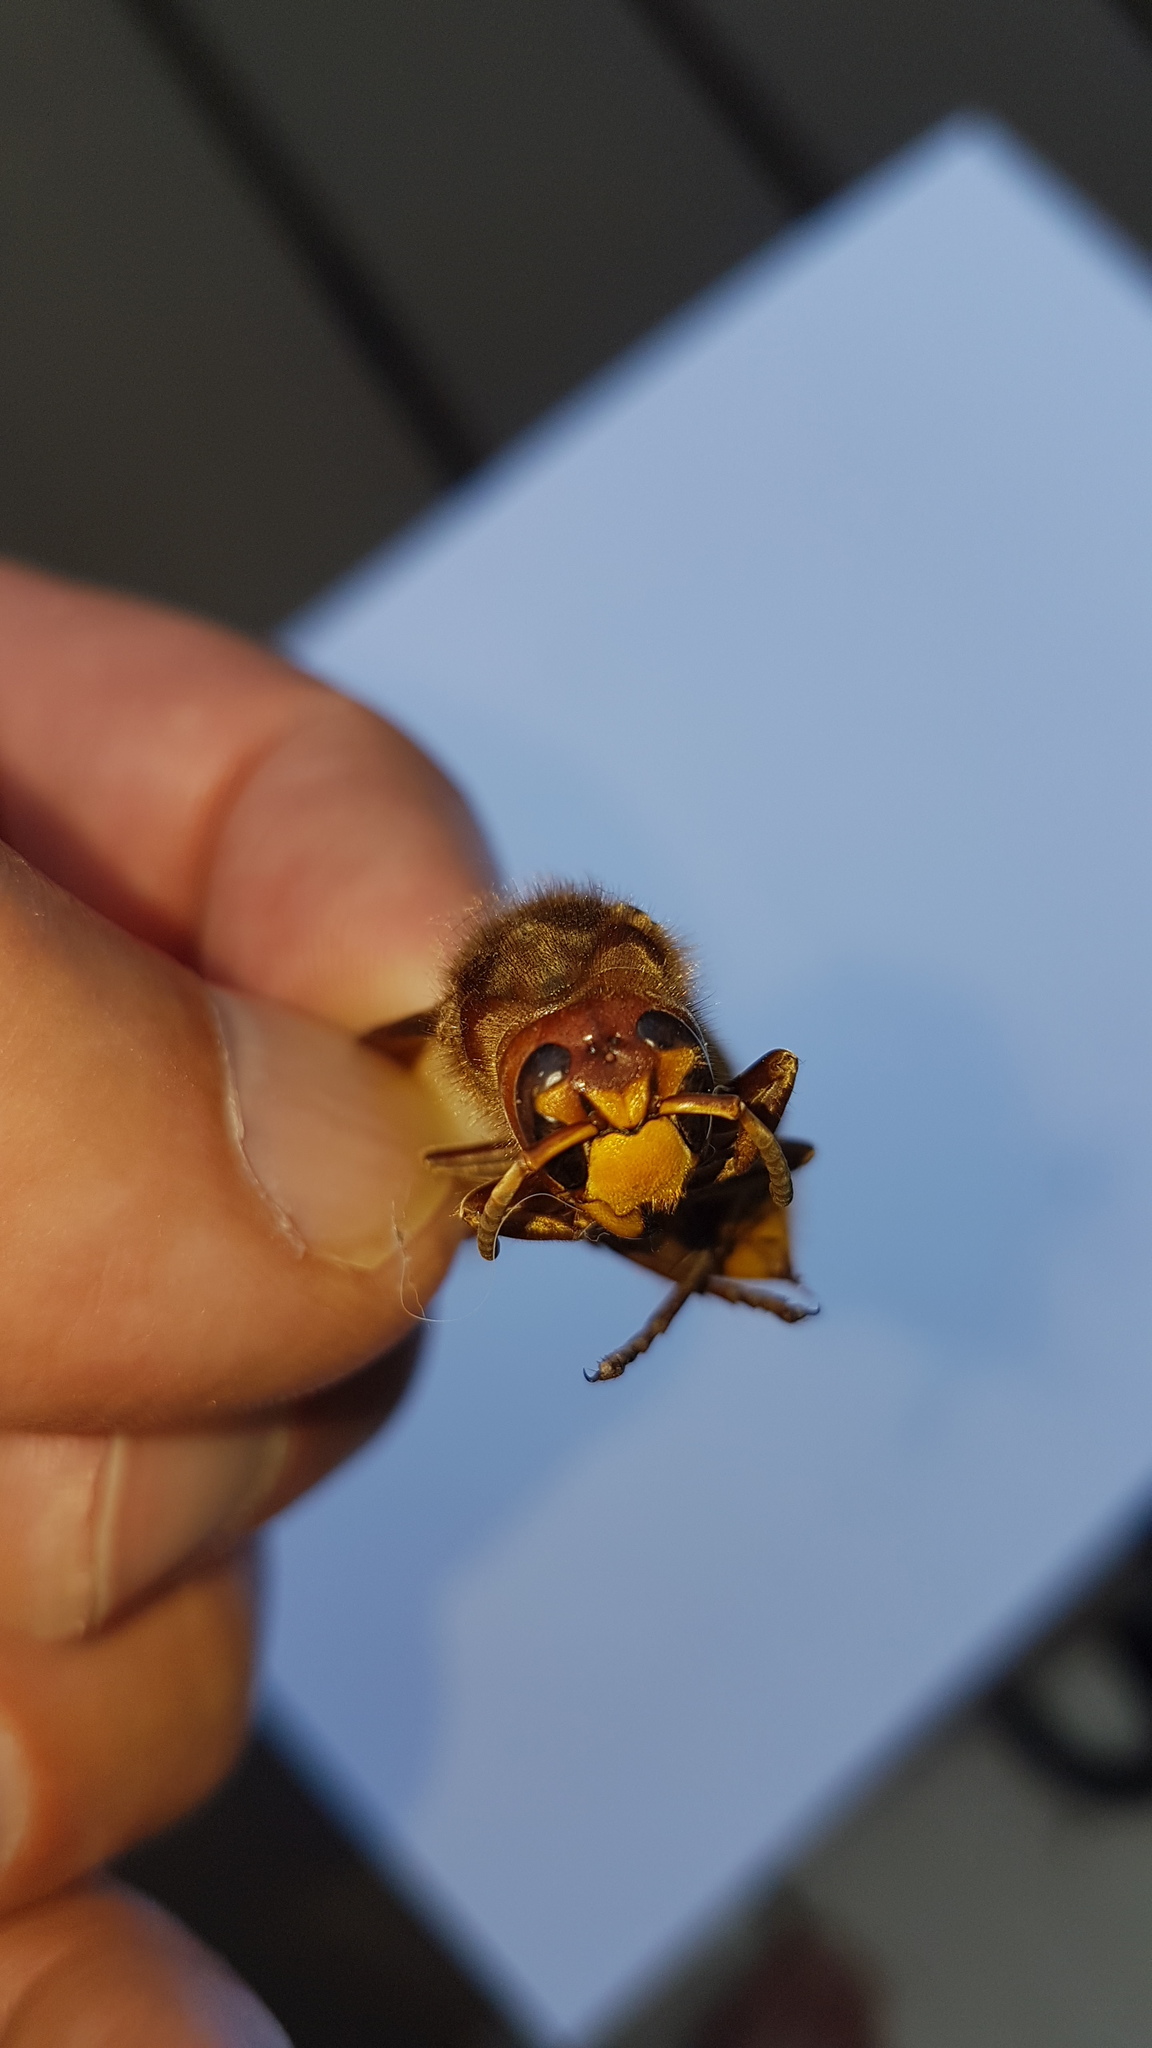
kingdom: Animalia
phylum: Arthropoda
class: Insecta
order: Hymenoptera
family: Vespidae
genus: Vespa
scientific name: Vespa crabro
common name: Hornet
